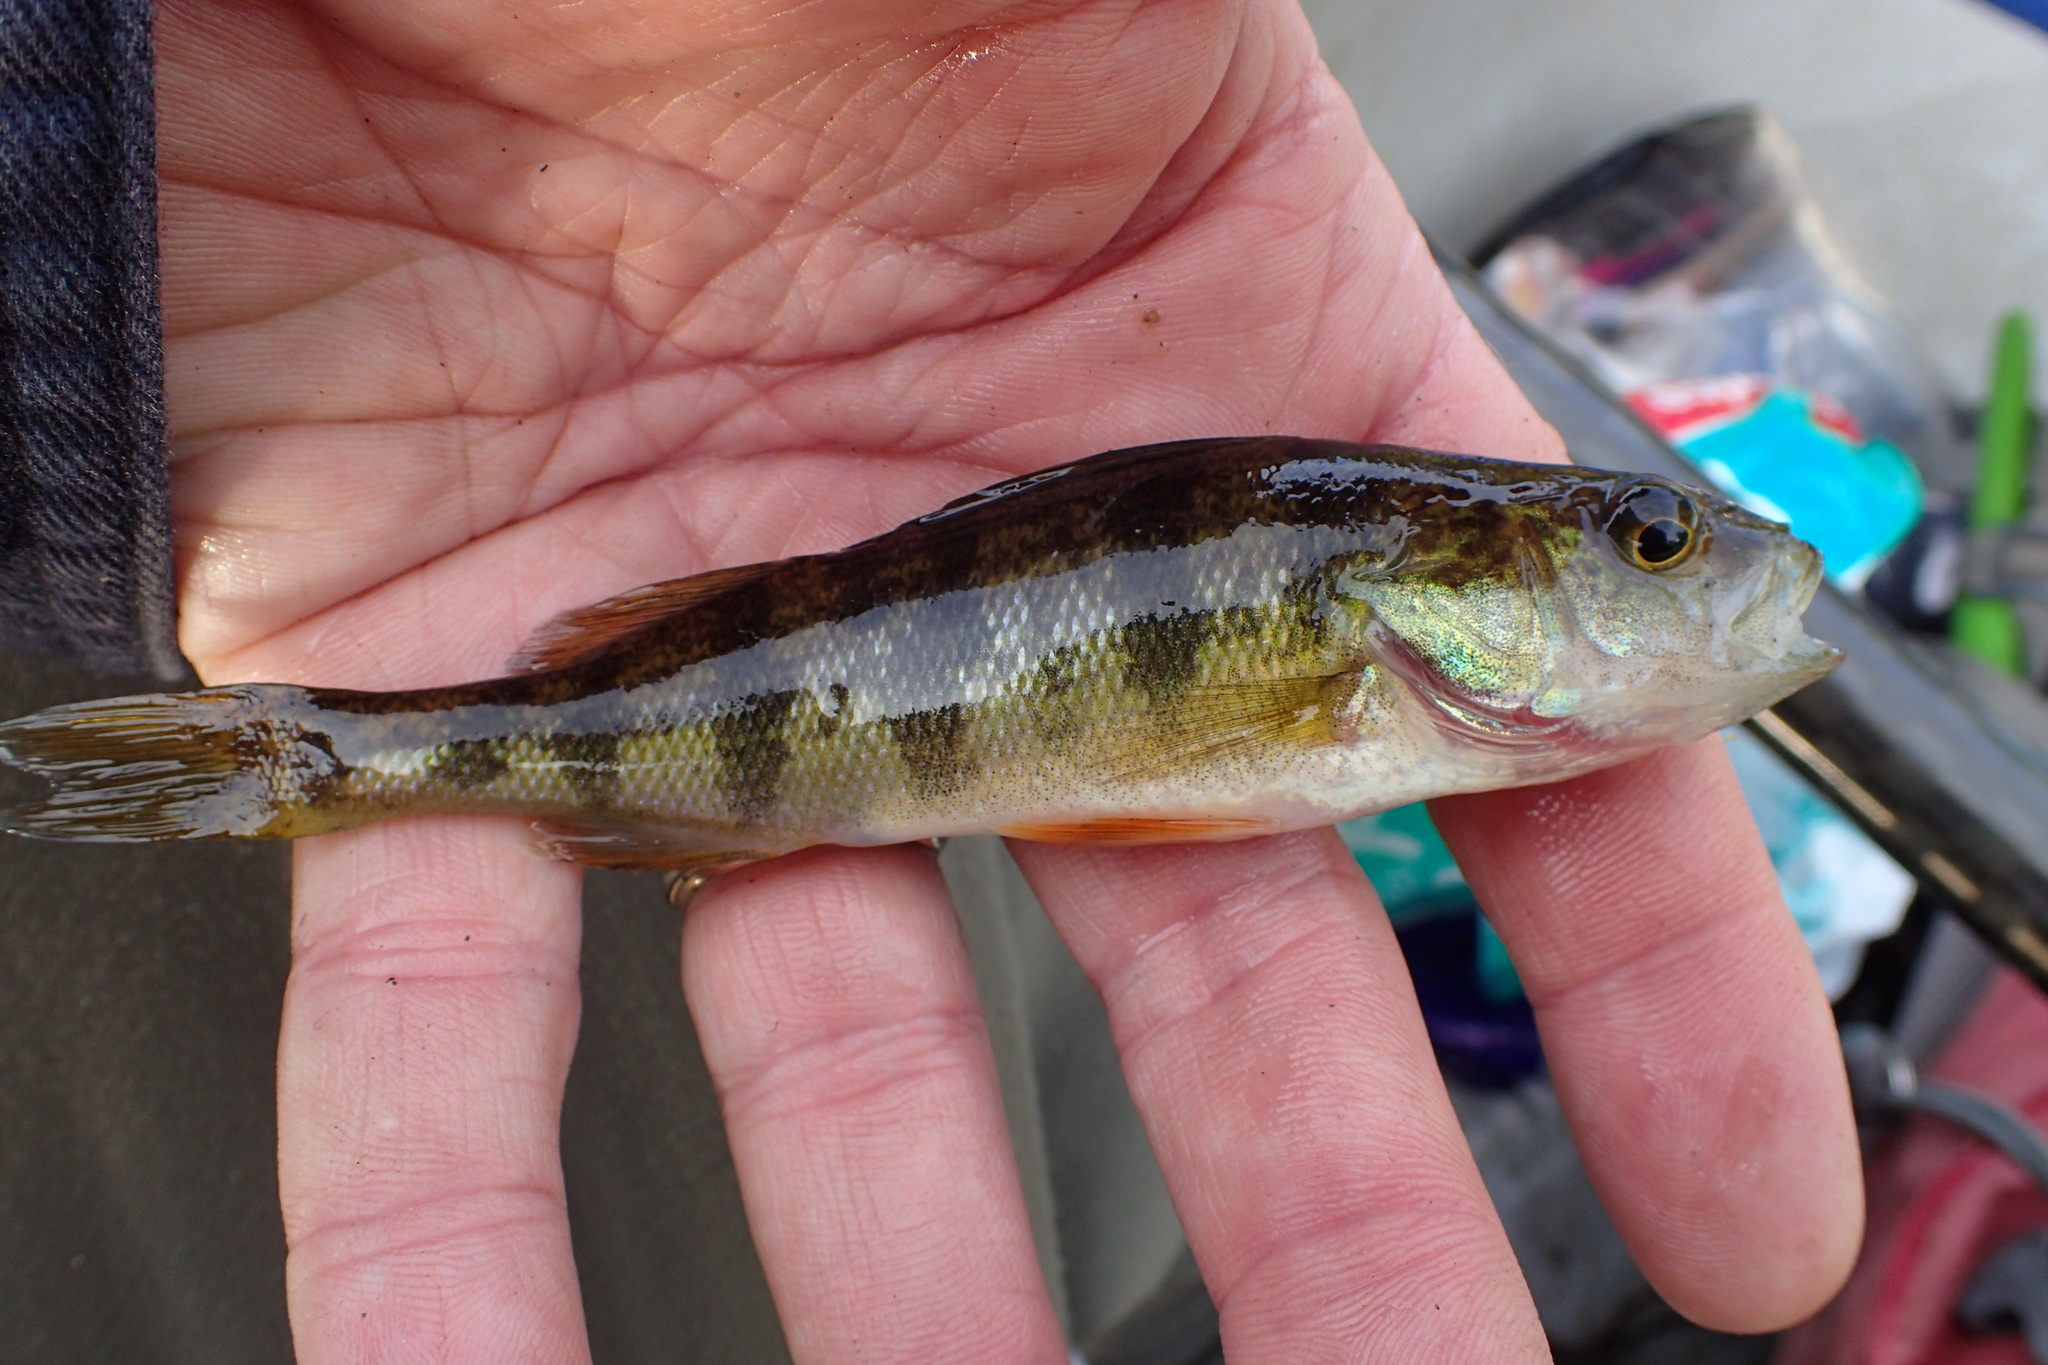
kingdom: Animalia
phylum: Chordata
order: Perciformes
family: Percidae
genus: Perca
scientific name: Perca flavescens
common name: Yellow perch
